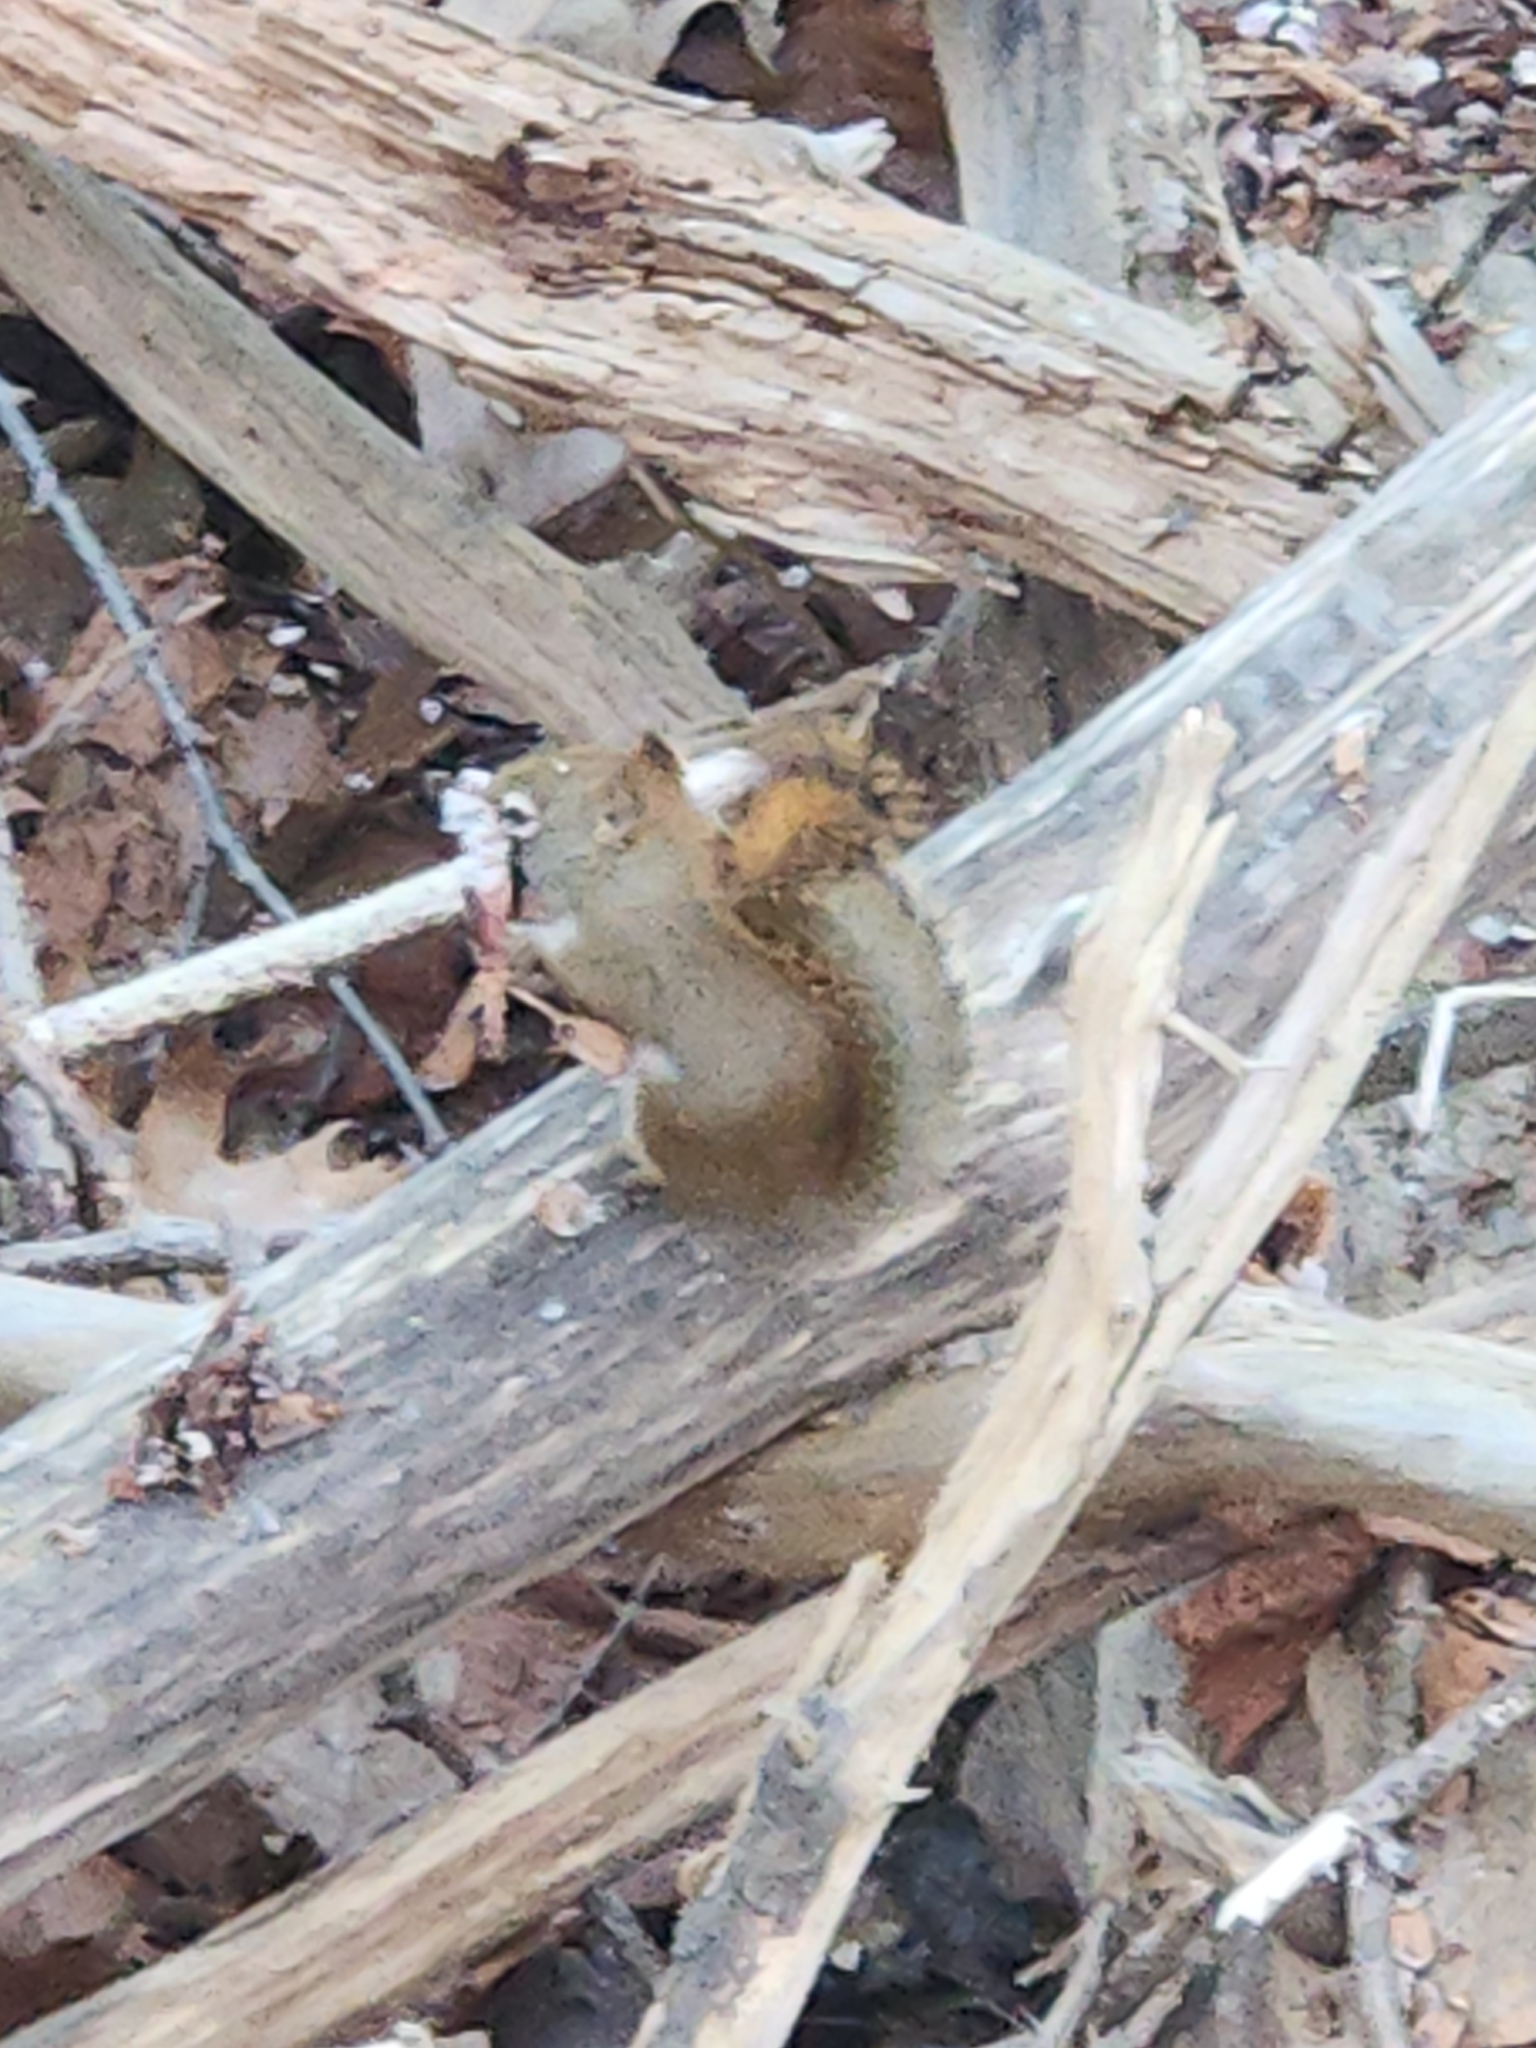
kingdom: Animalia
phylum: Chordata
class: Mammalia
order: Rodentia
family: Sciuridae
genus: Tamiasciurus
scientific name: Tamiasciurus hudsonicus
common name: Red squirrel
